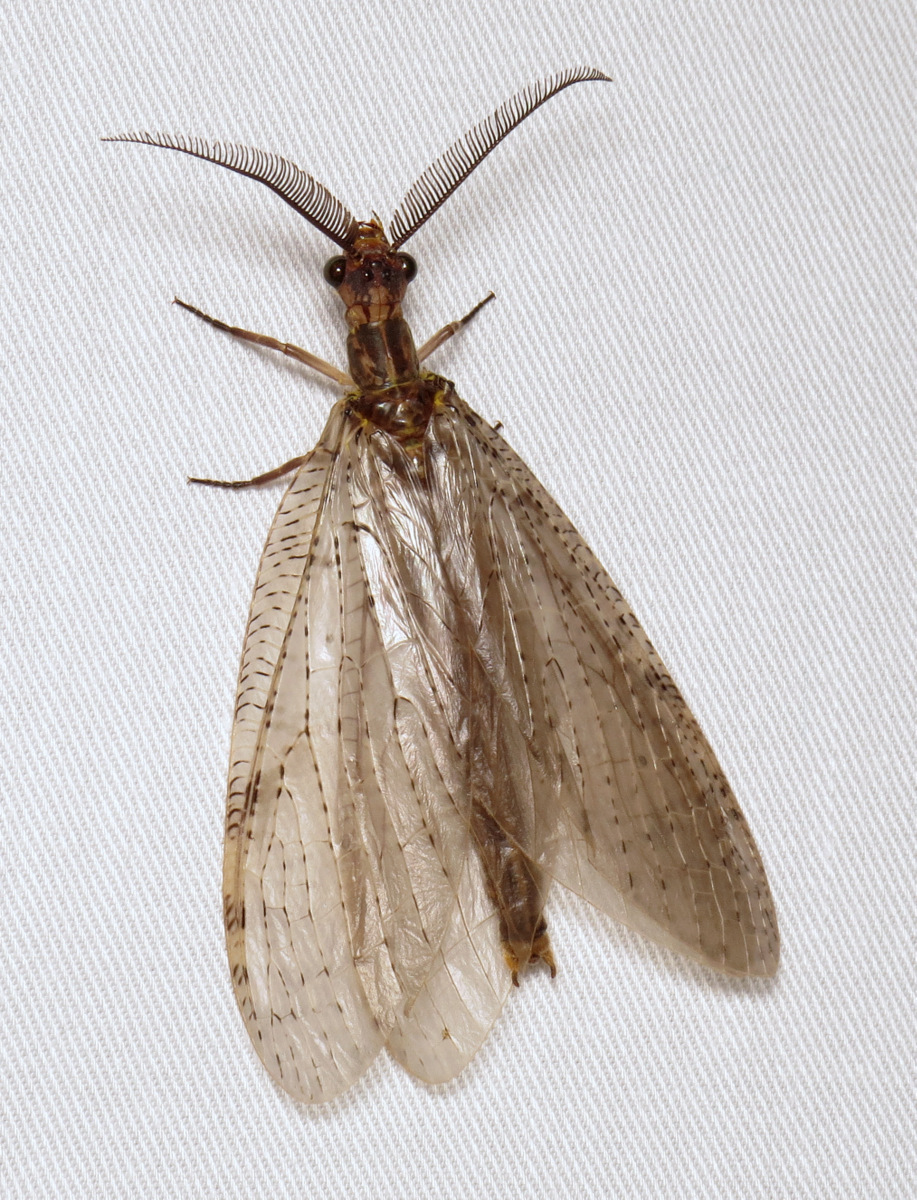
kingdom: Animalia
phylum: Arthropoda
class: Insecta
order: Megaloptera
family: Corydalidae
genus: Chauliodes
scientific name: Chauliodes pectinicornis
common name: Summer fishfly
